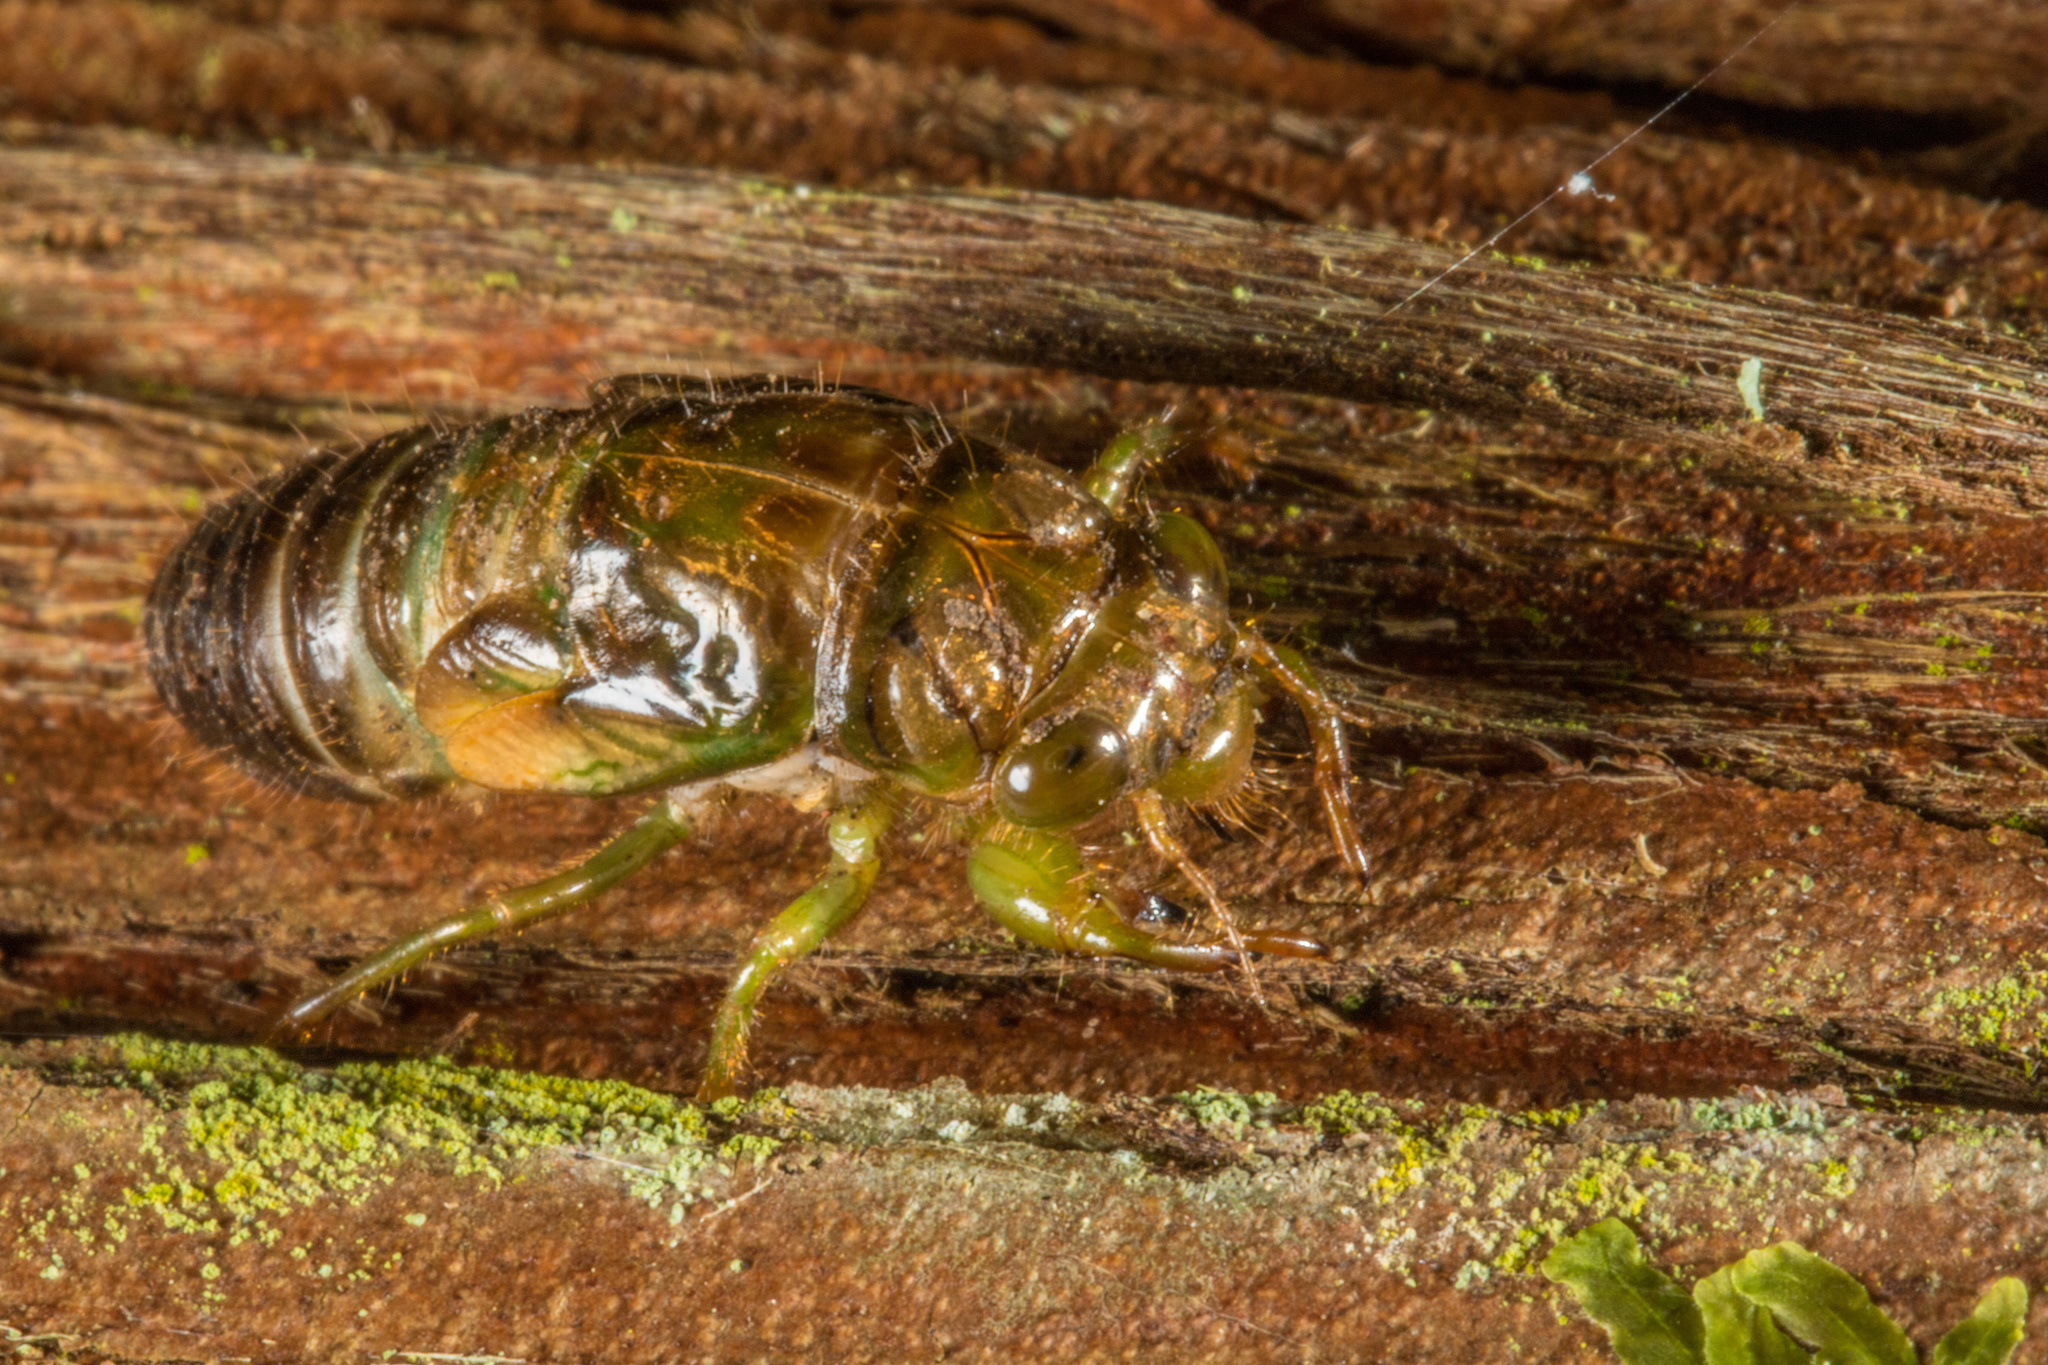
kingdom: Animalia
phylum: Arthropoda
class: Insecta
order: Hemiptera
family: Cicadidae
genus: Kikihia
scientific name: Kikihia scutellaris
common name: Lesser bronze cicada
